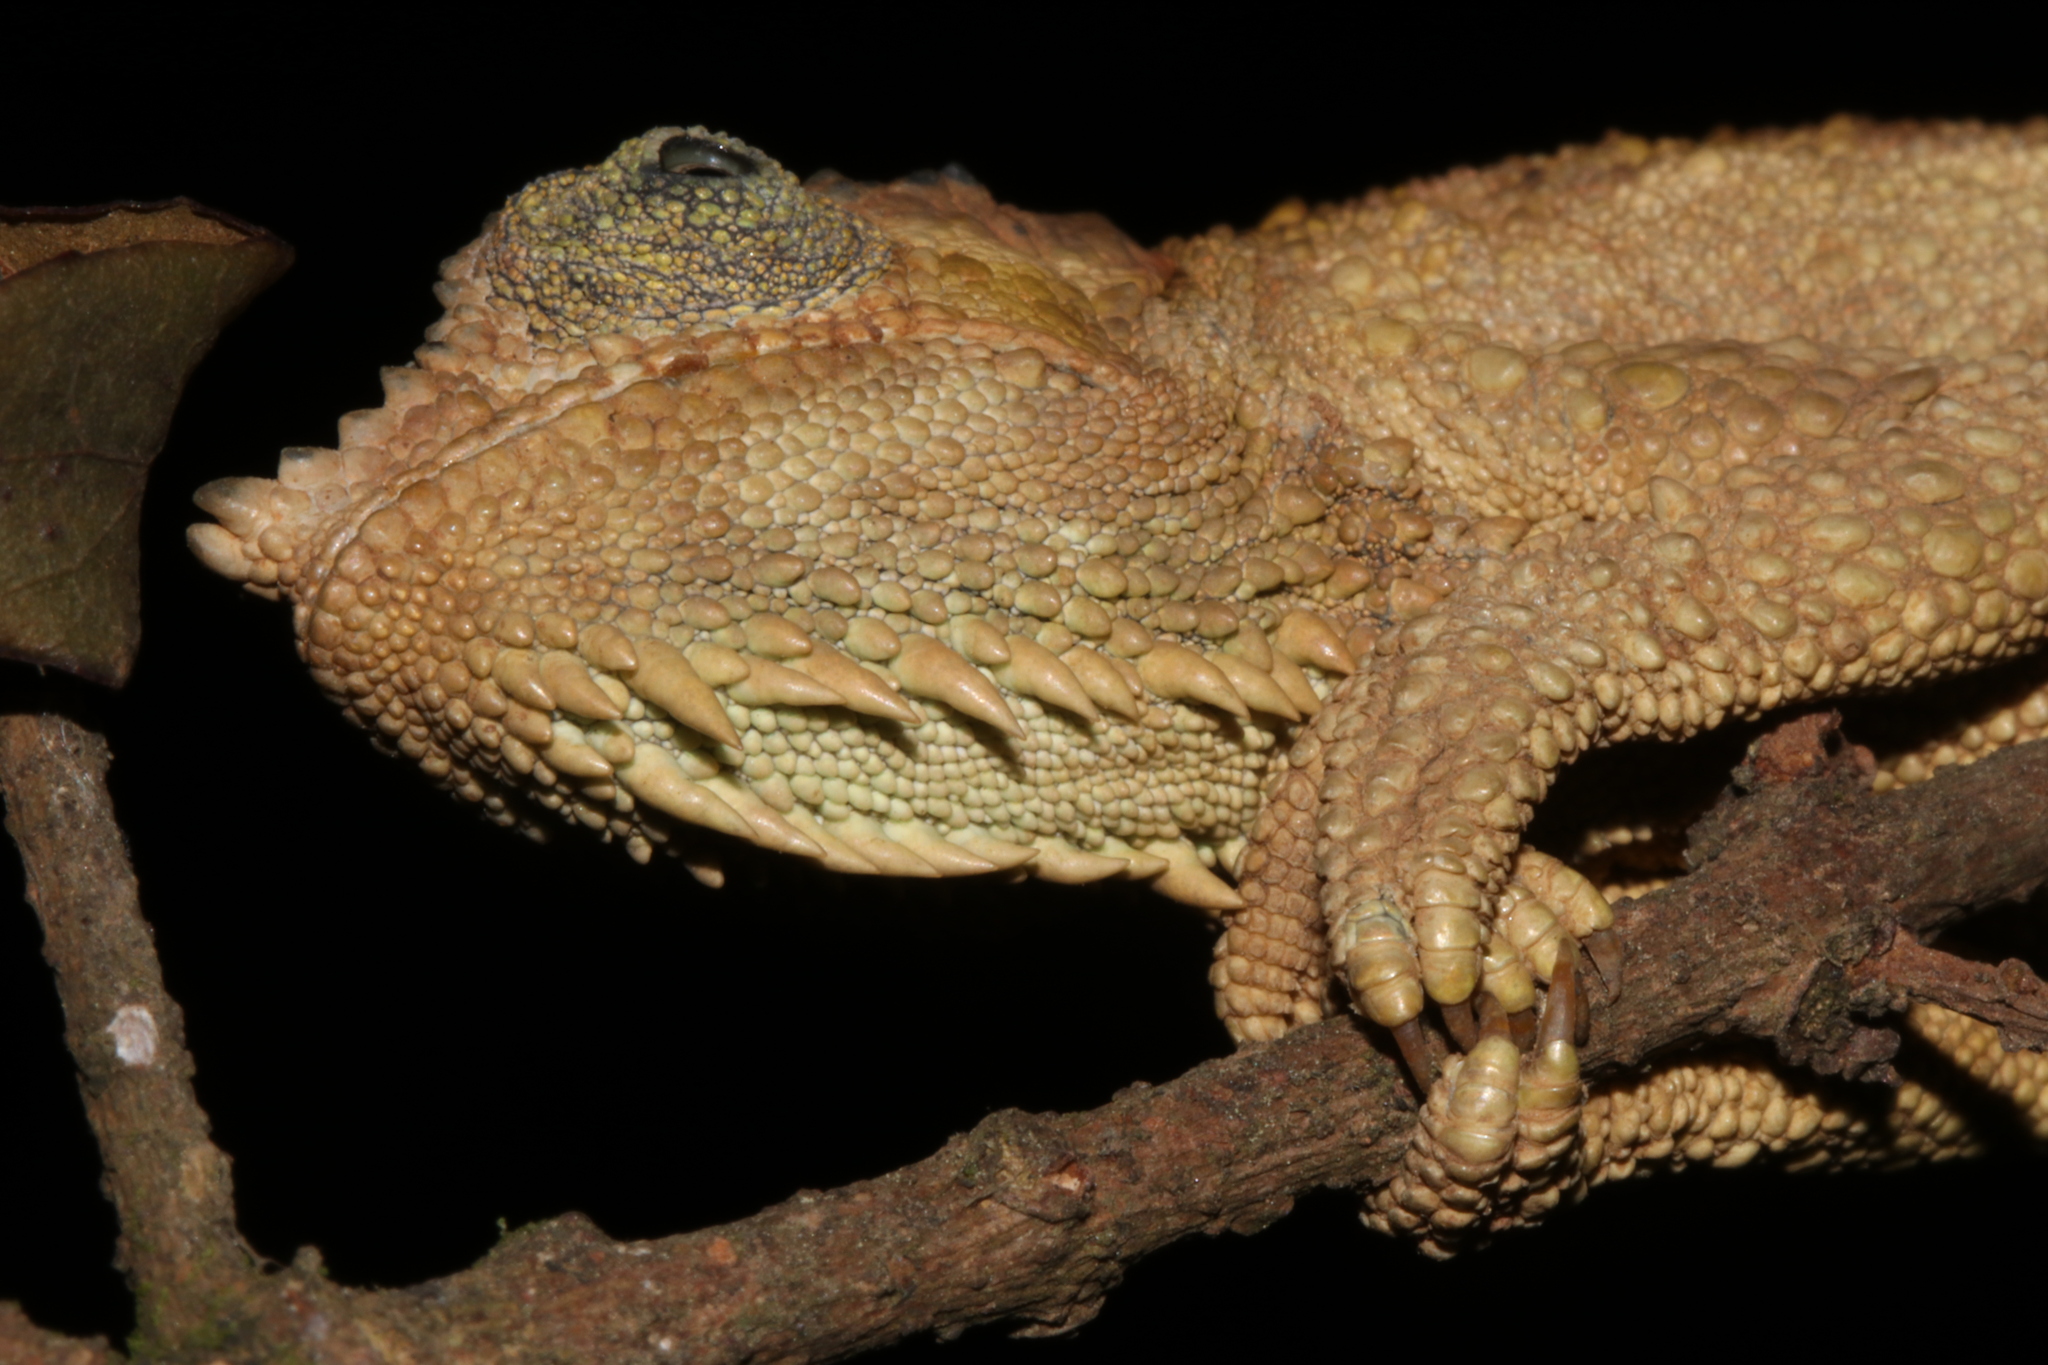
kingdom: Animalia
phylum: Chordata
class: Squamata
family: Chamaeleonidae
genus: Trioceros
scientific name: Trioceros tempeli
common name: Tanzania mountain chameleon
